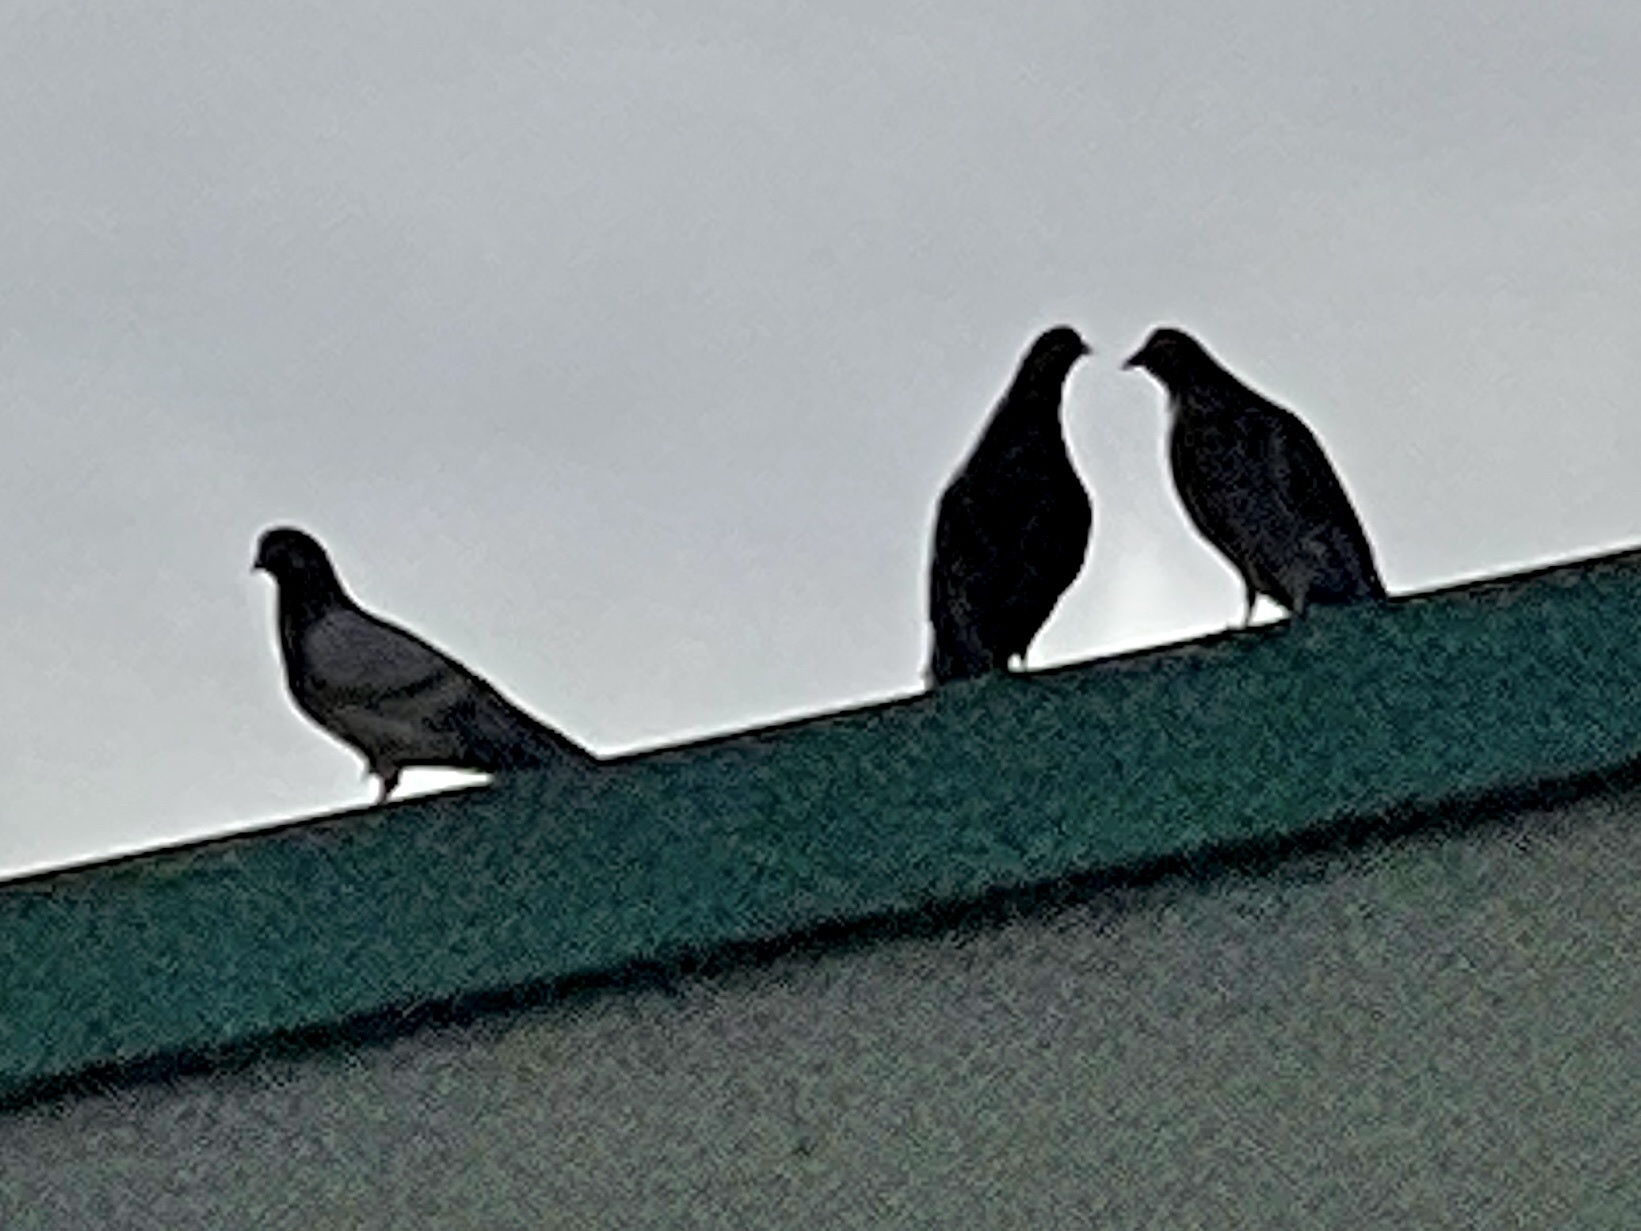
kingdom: Animalia
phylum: Chordata
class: Aves
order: Columbiformes
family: Columbidae
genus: Columba
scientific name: Columba livia
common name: Rock pigeon
